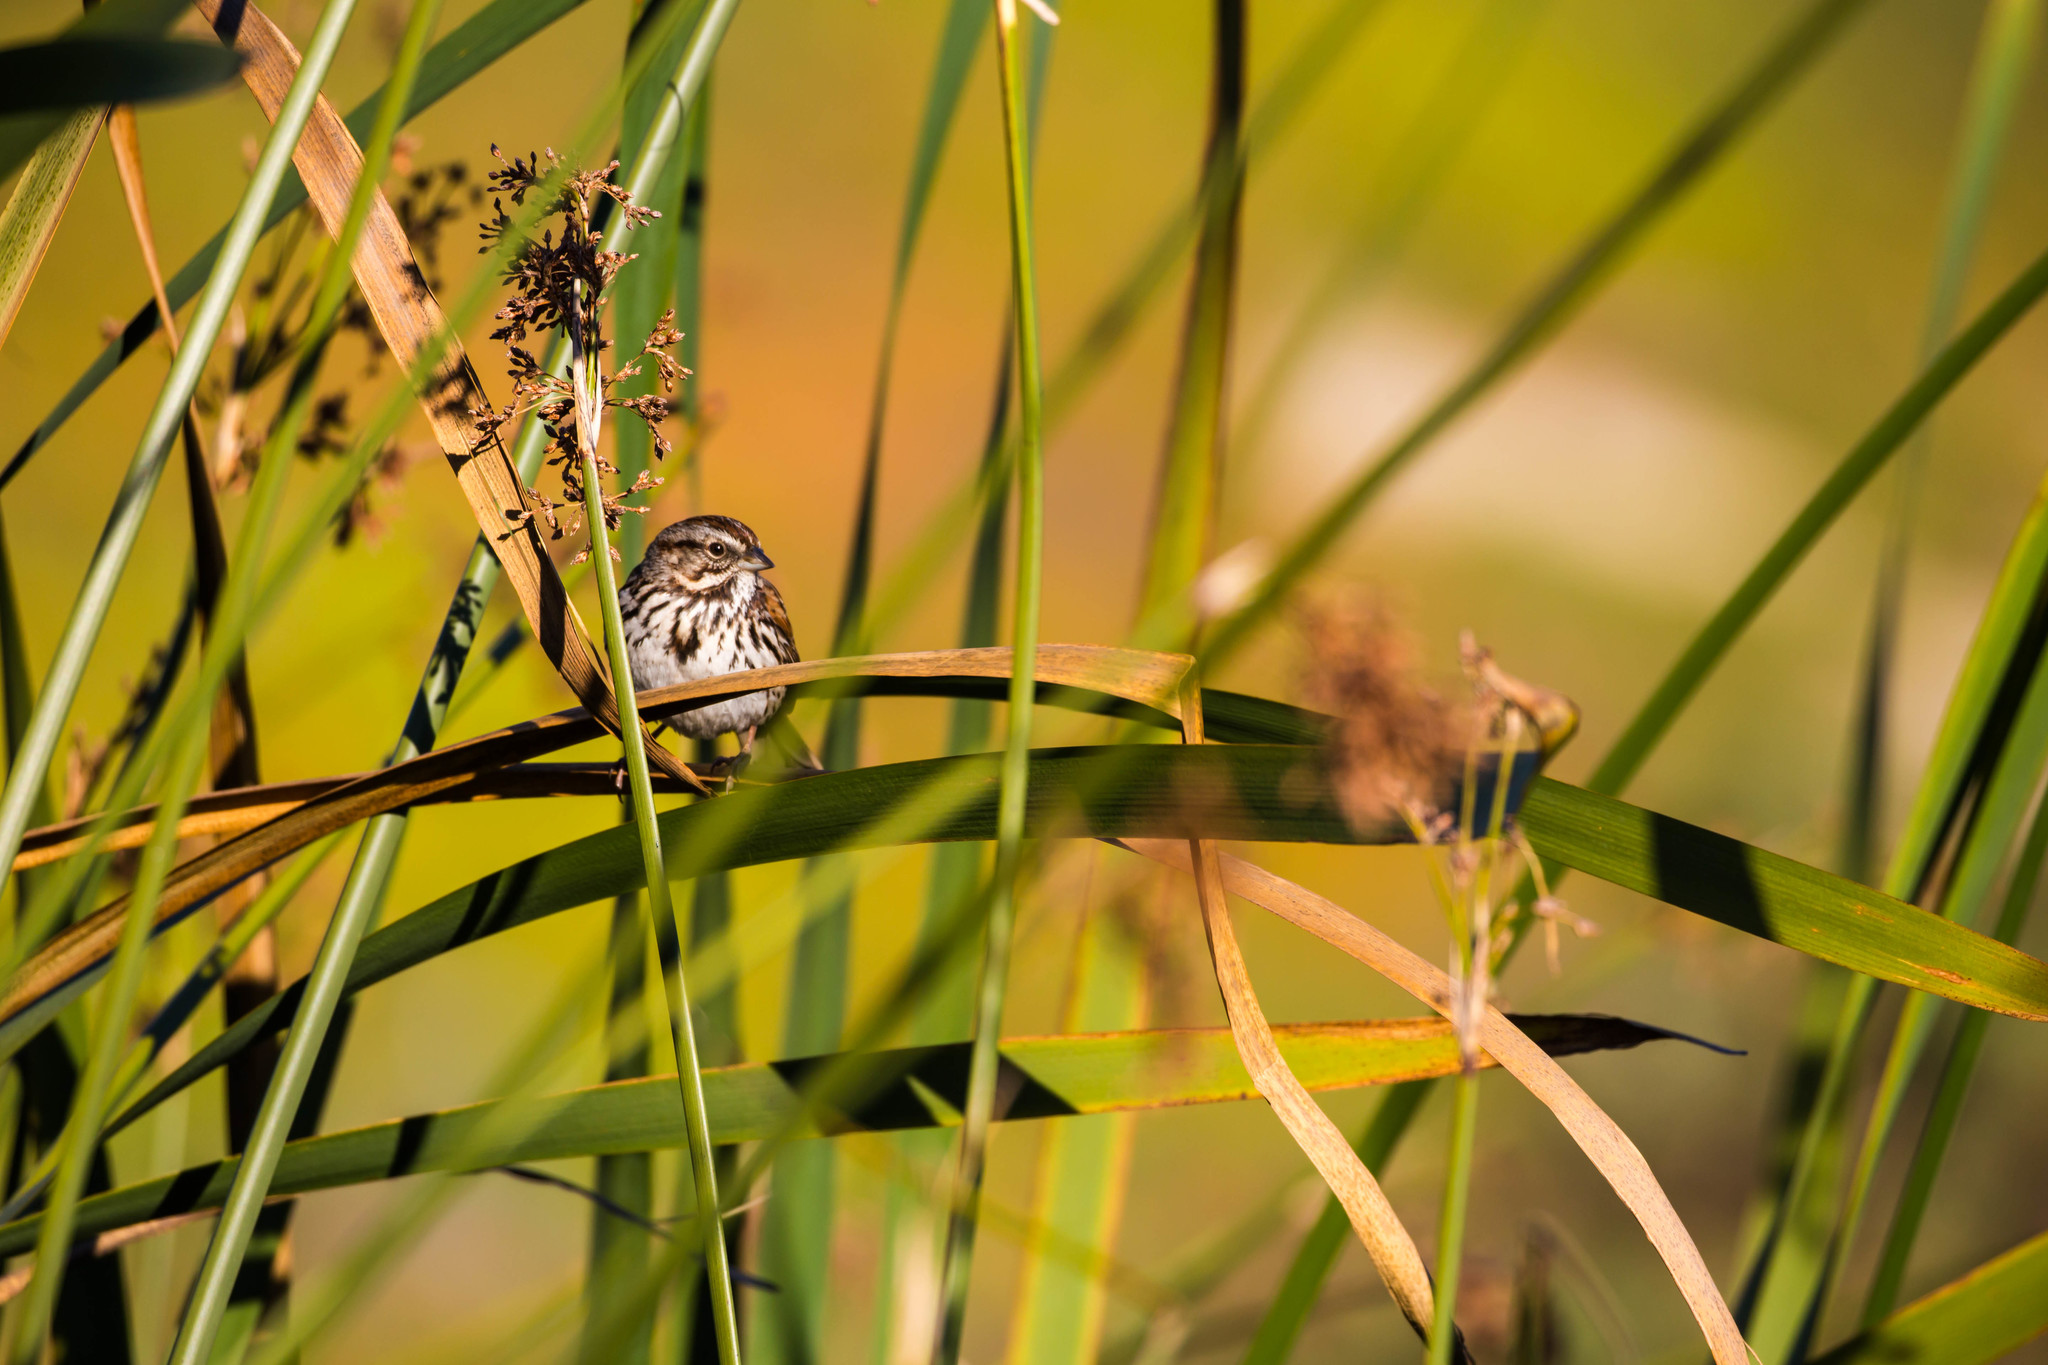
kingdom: Animalia
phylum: Chordata
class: Aves
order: Passeriformes
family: Passerellidae
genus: Melospiza
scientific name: Melospiza melodia
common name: Song sparrow
